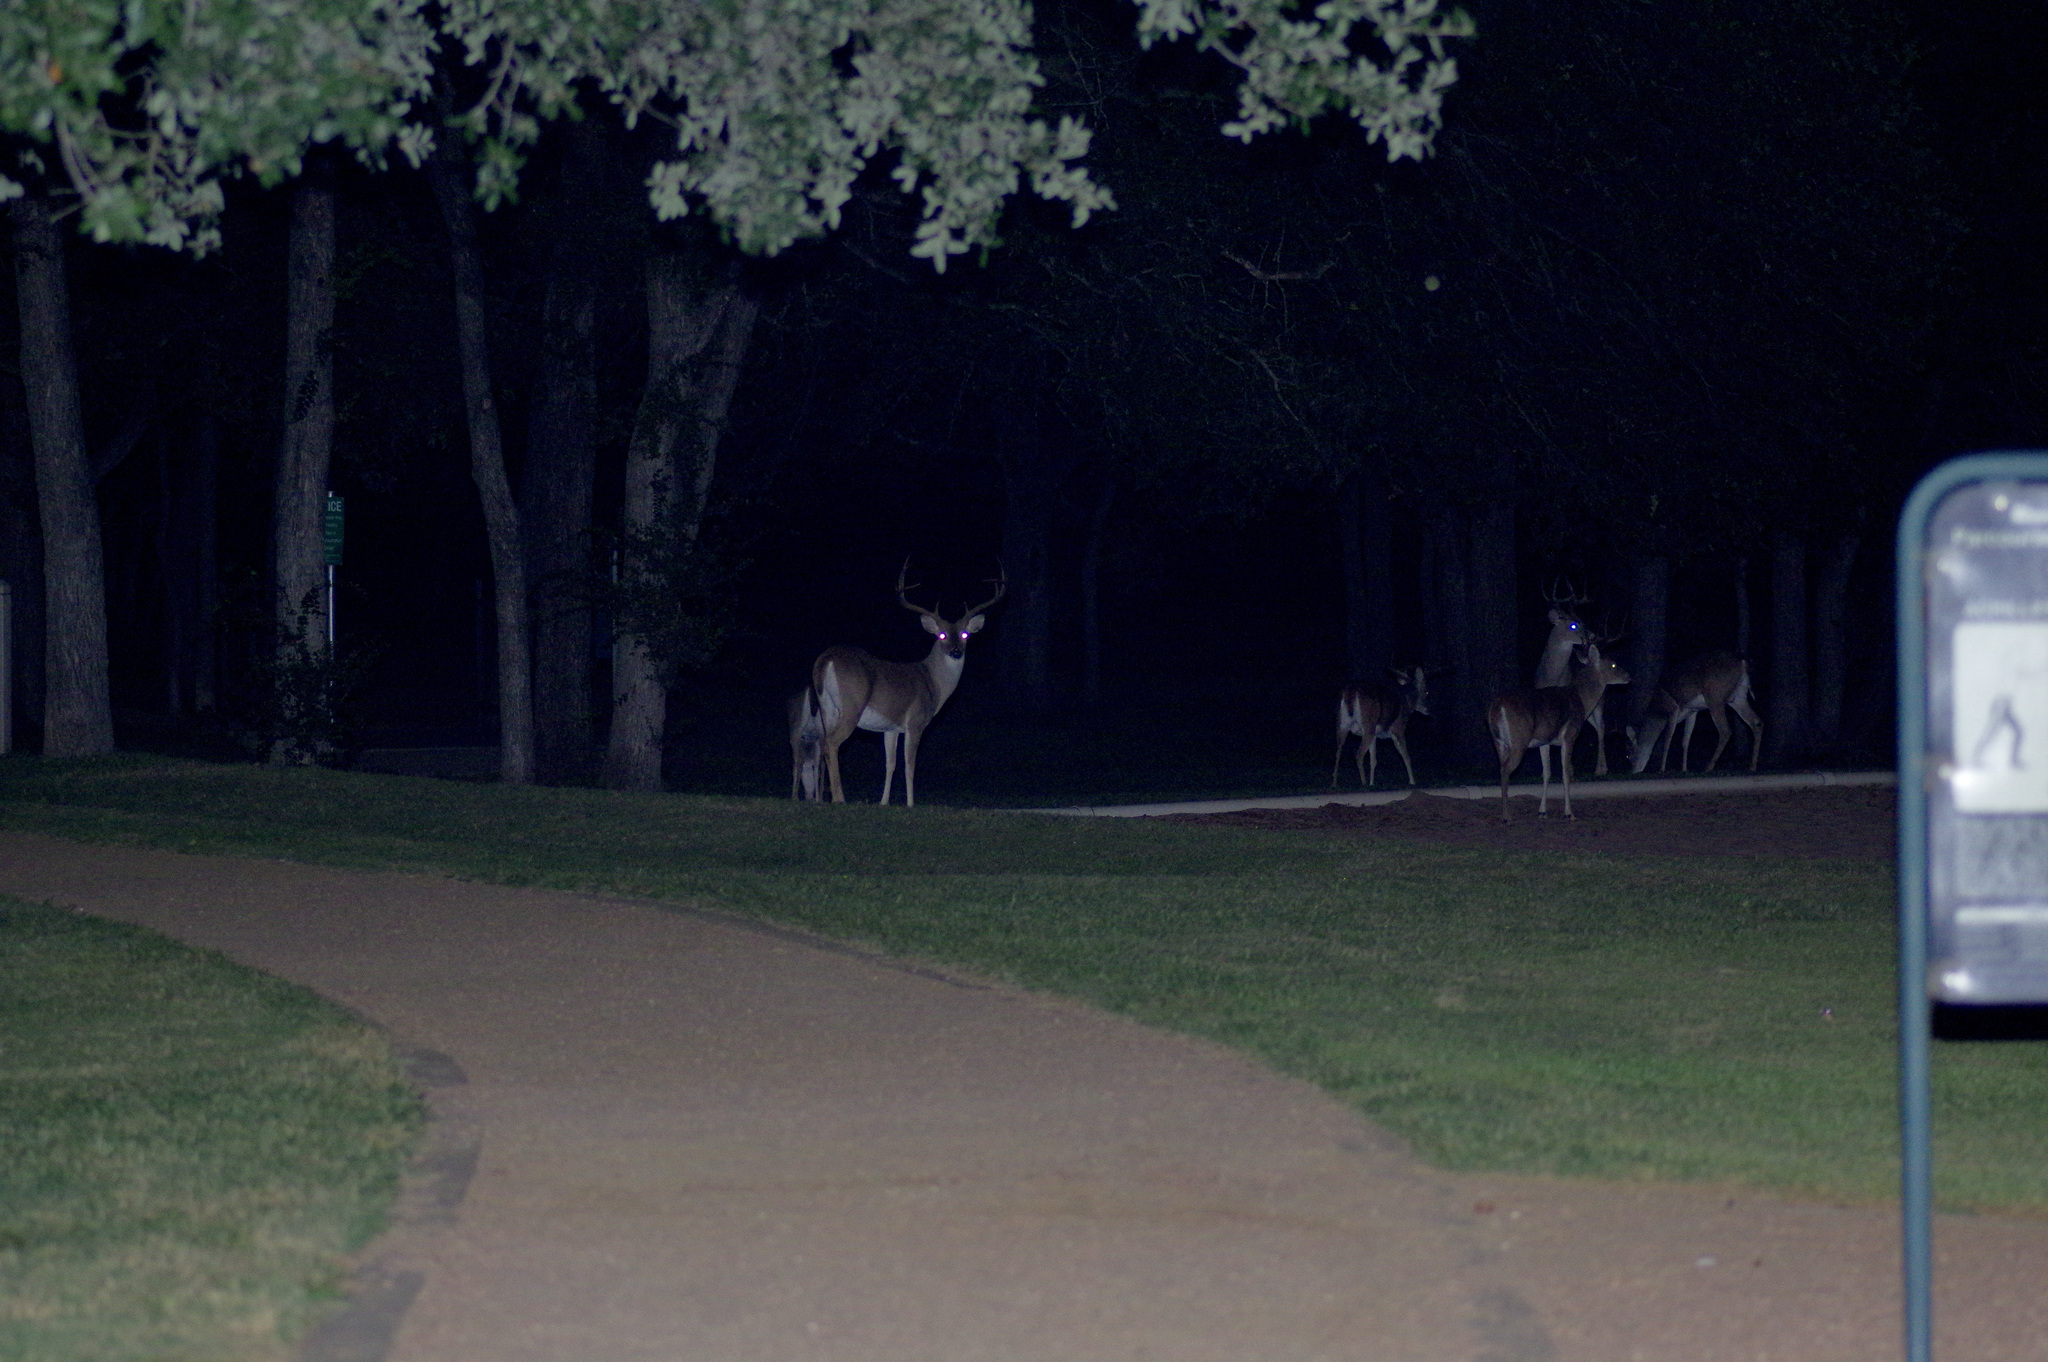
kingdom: Animalia
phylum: Chordata
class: Mammalia
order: Artiodactyla
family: Cervidae
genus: Odocoileus
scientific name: Odocoileus virginianus
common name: White-tailed deer
